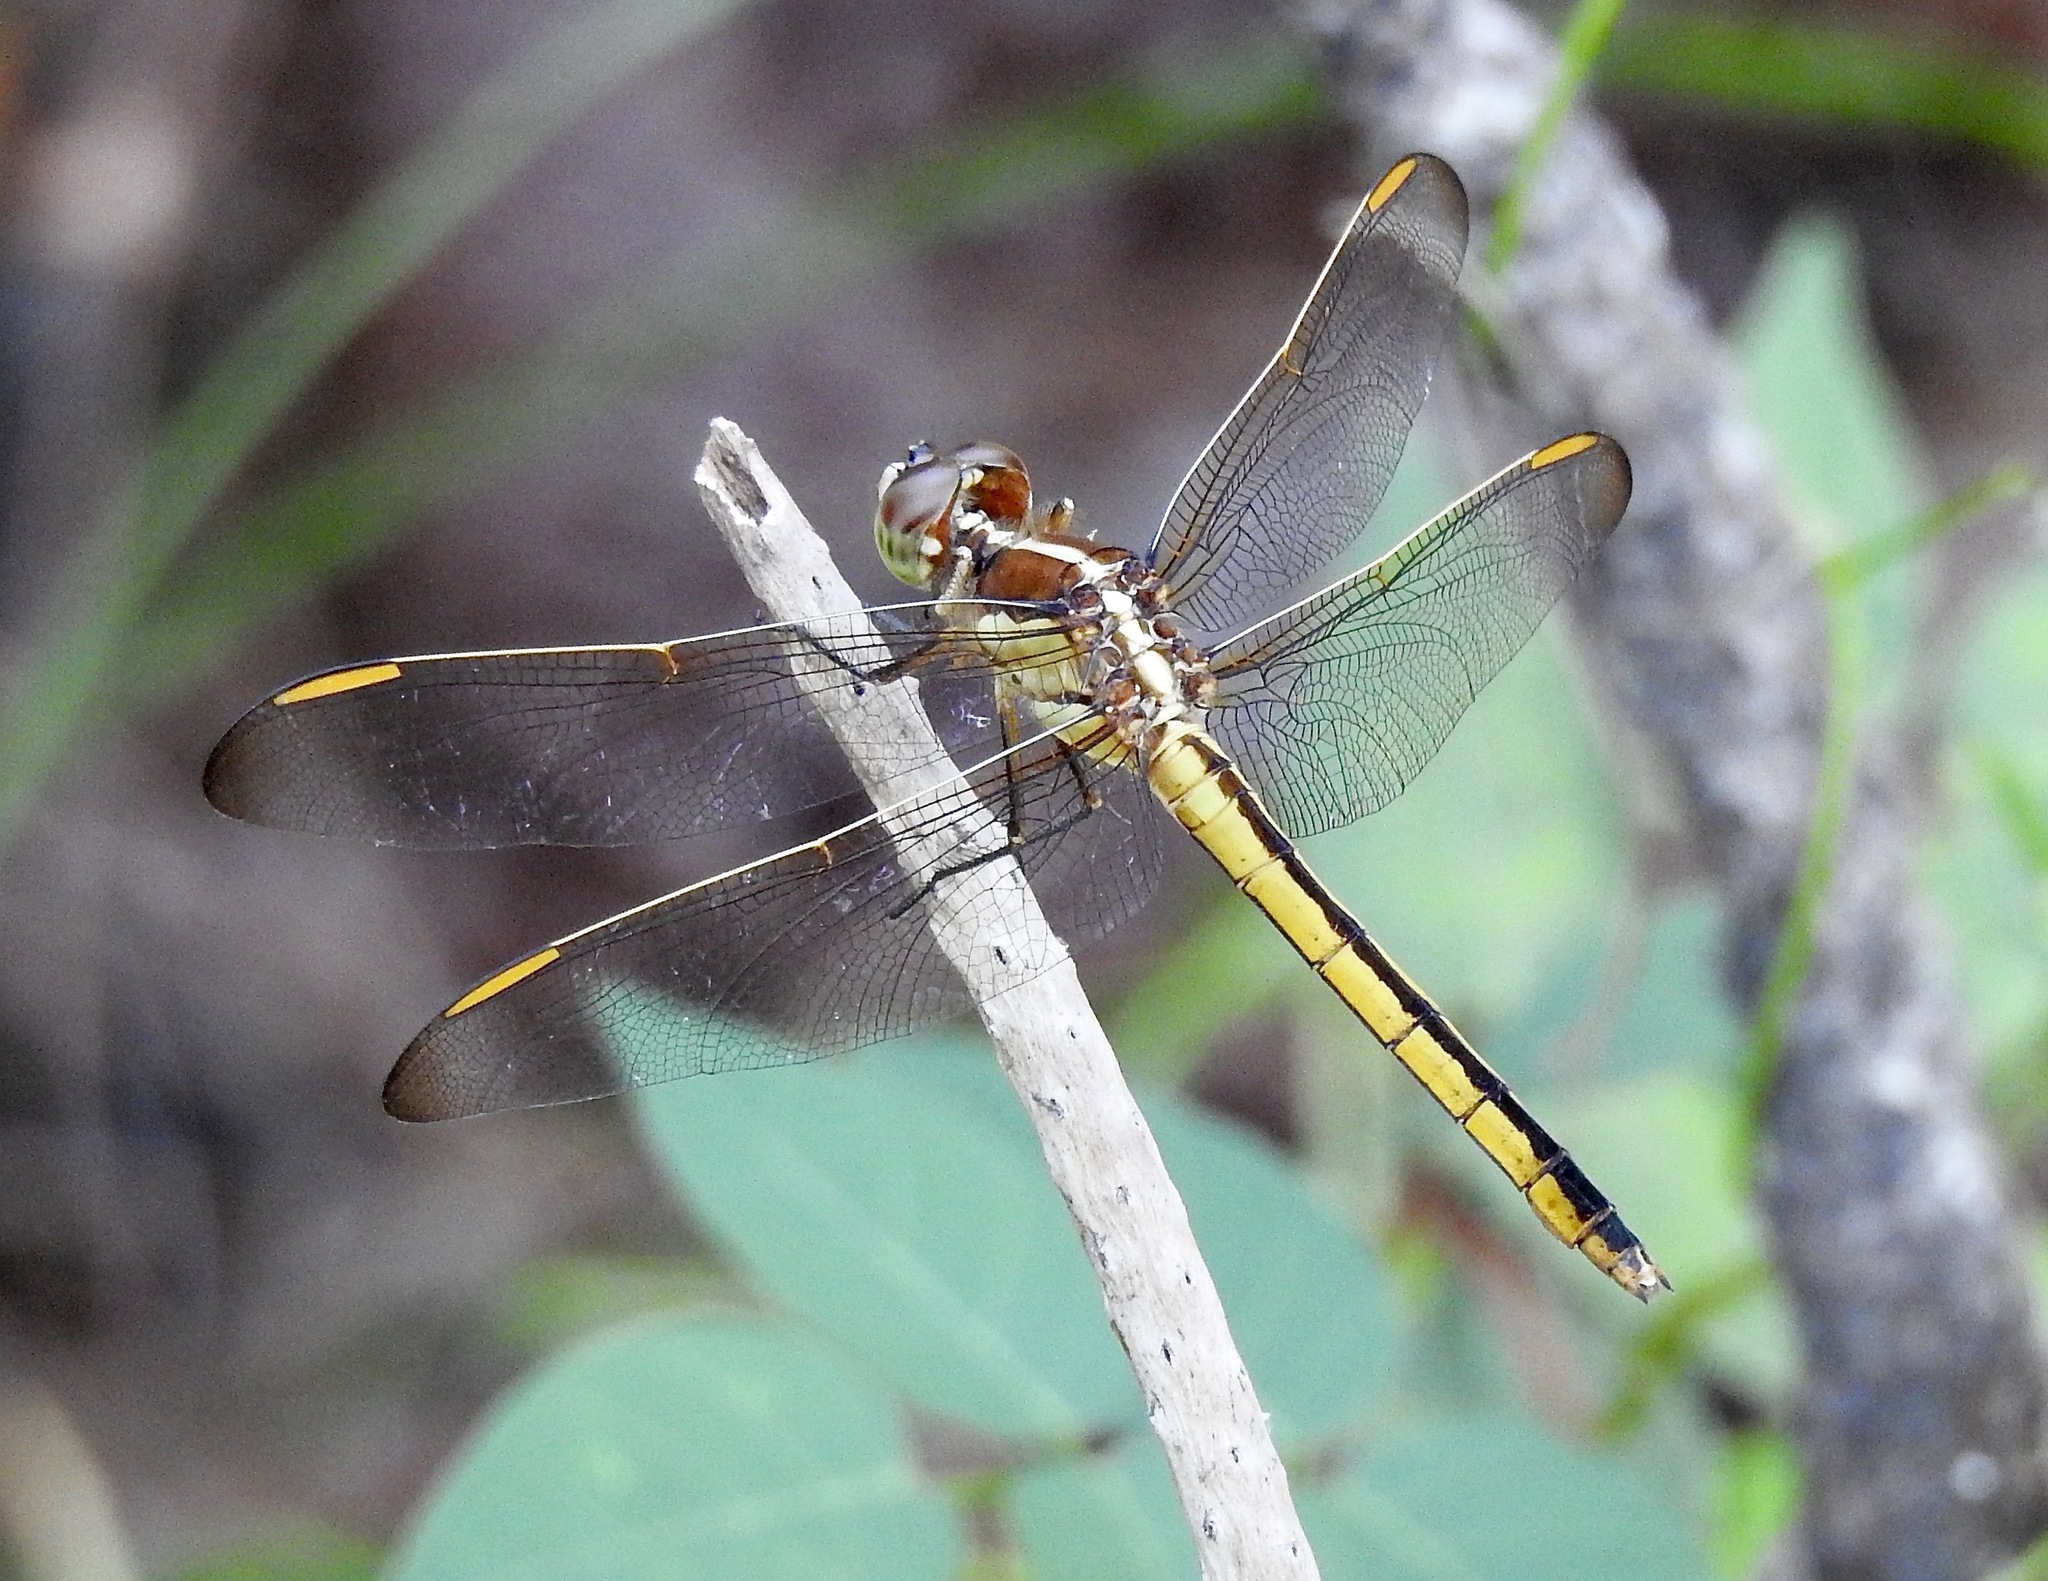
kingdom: Animalia
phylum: Arthropoda
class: Insecta
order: Odonata
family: Libellulidae
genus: Libellula
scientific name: Libellula auripennis
